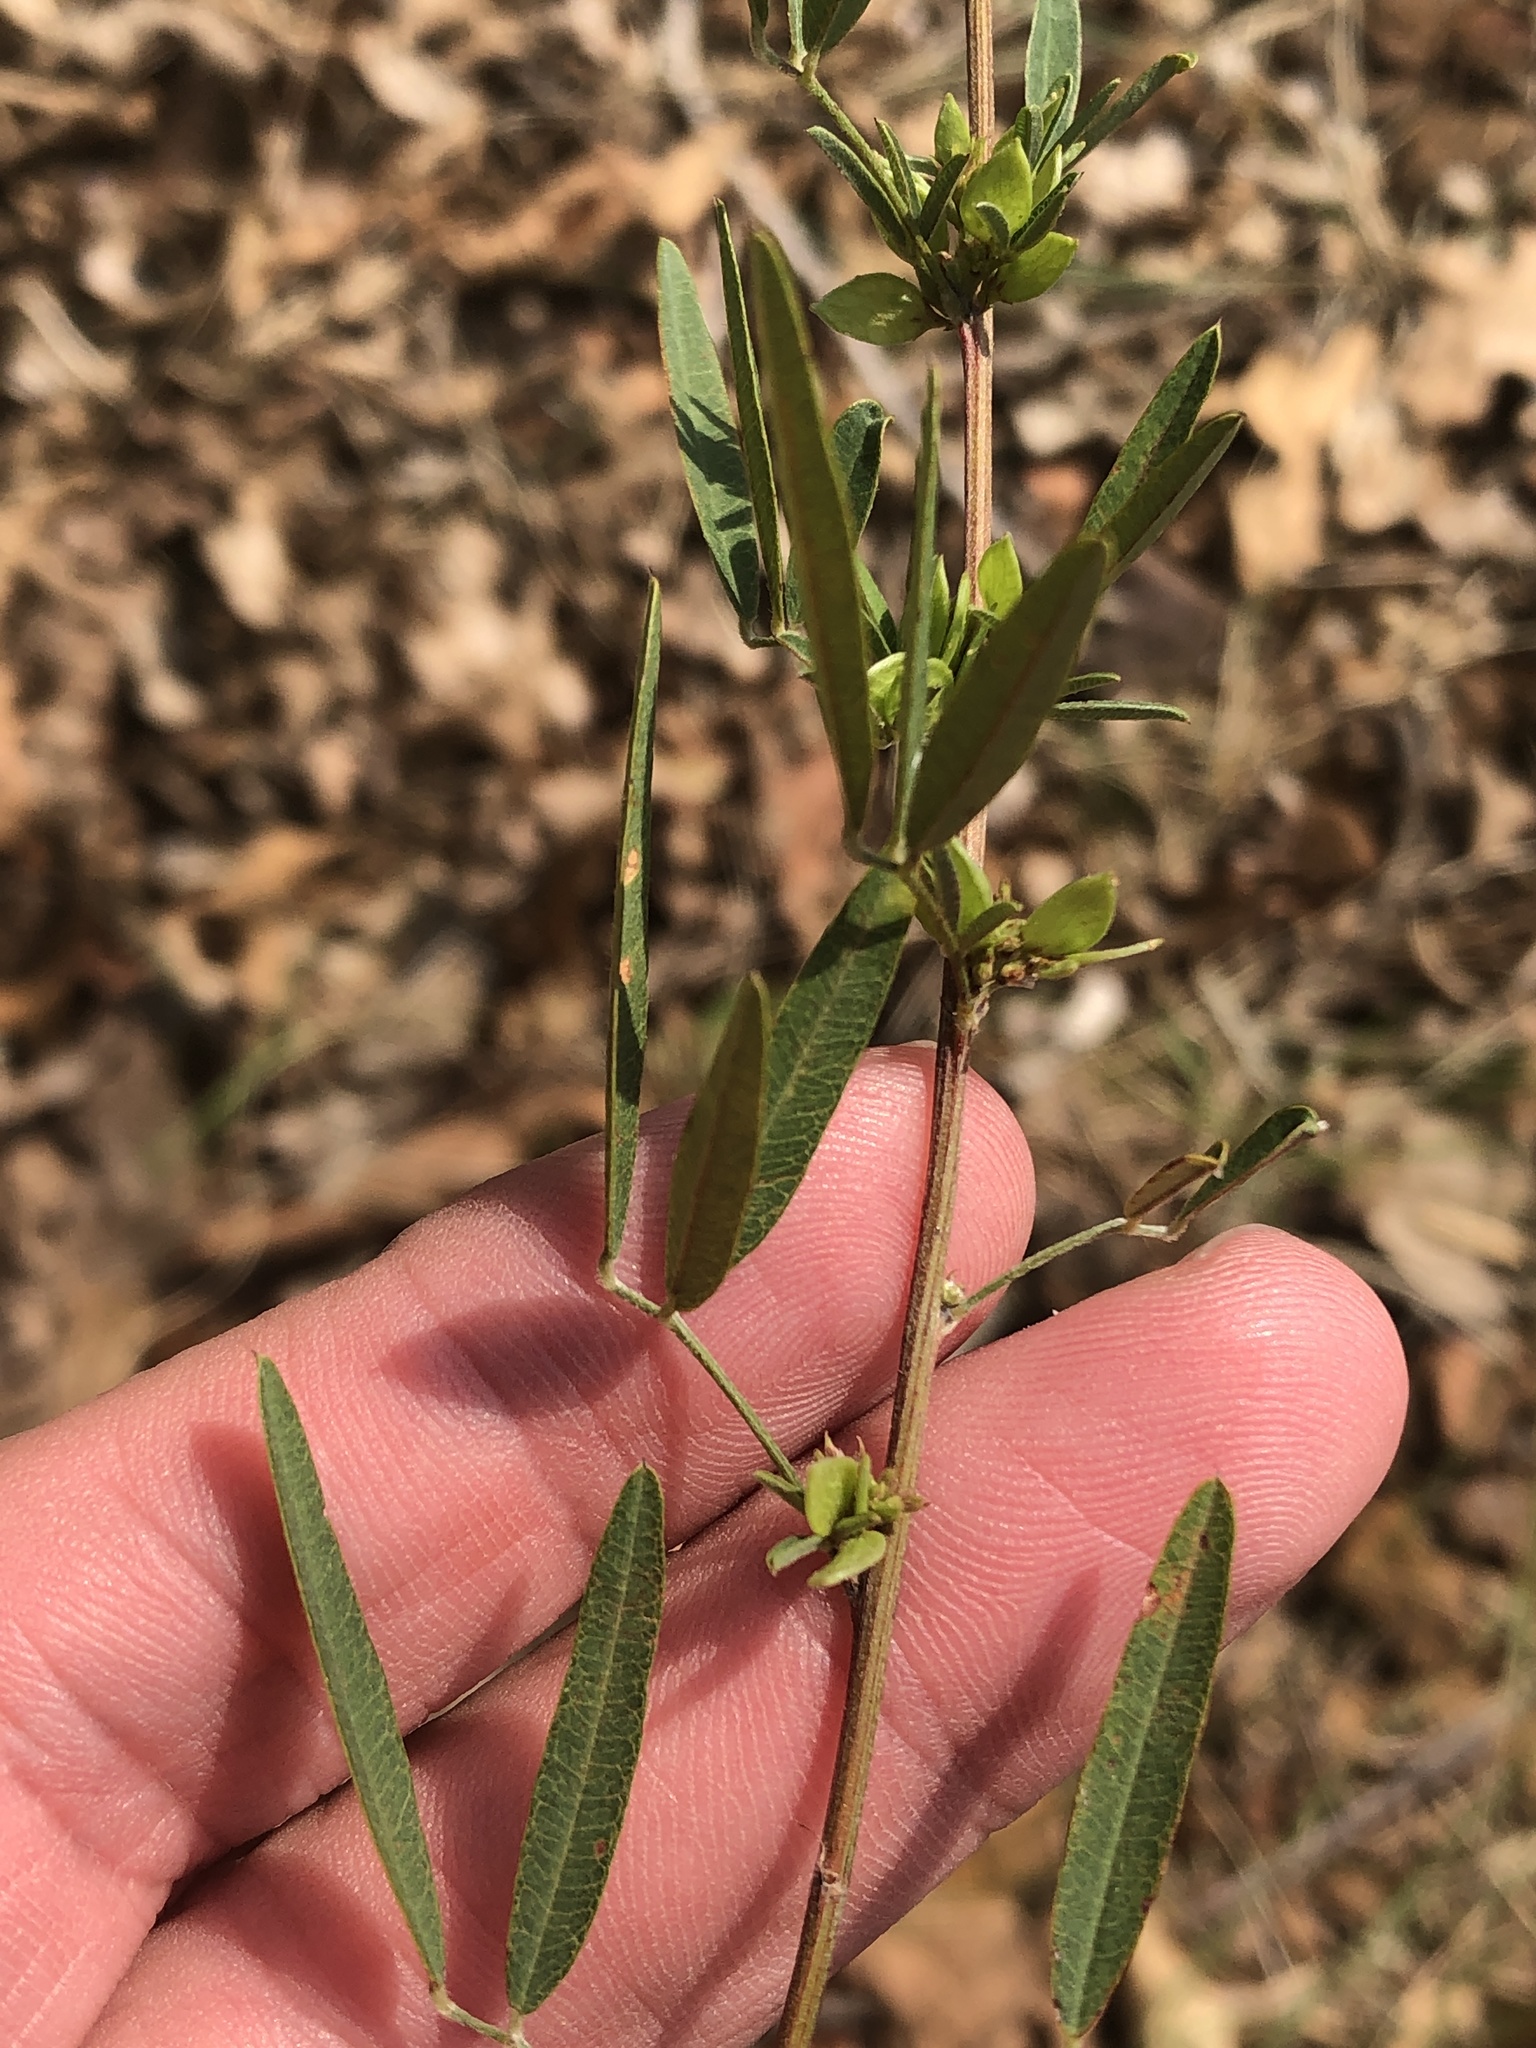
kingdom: Plantae
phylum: Tracheophyta
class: Magnoliopsida
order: Fabales
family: Fabaceae
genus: Lespedeza
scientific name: Lespedeza virginica
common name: Slender bush-clover
